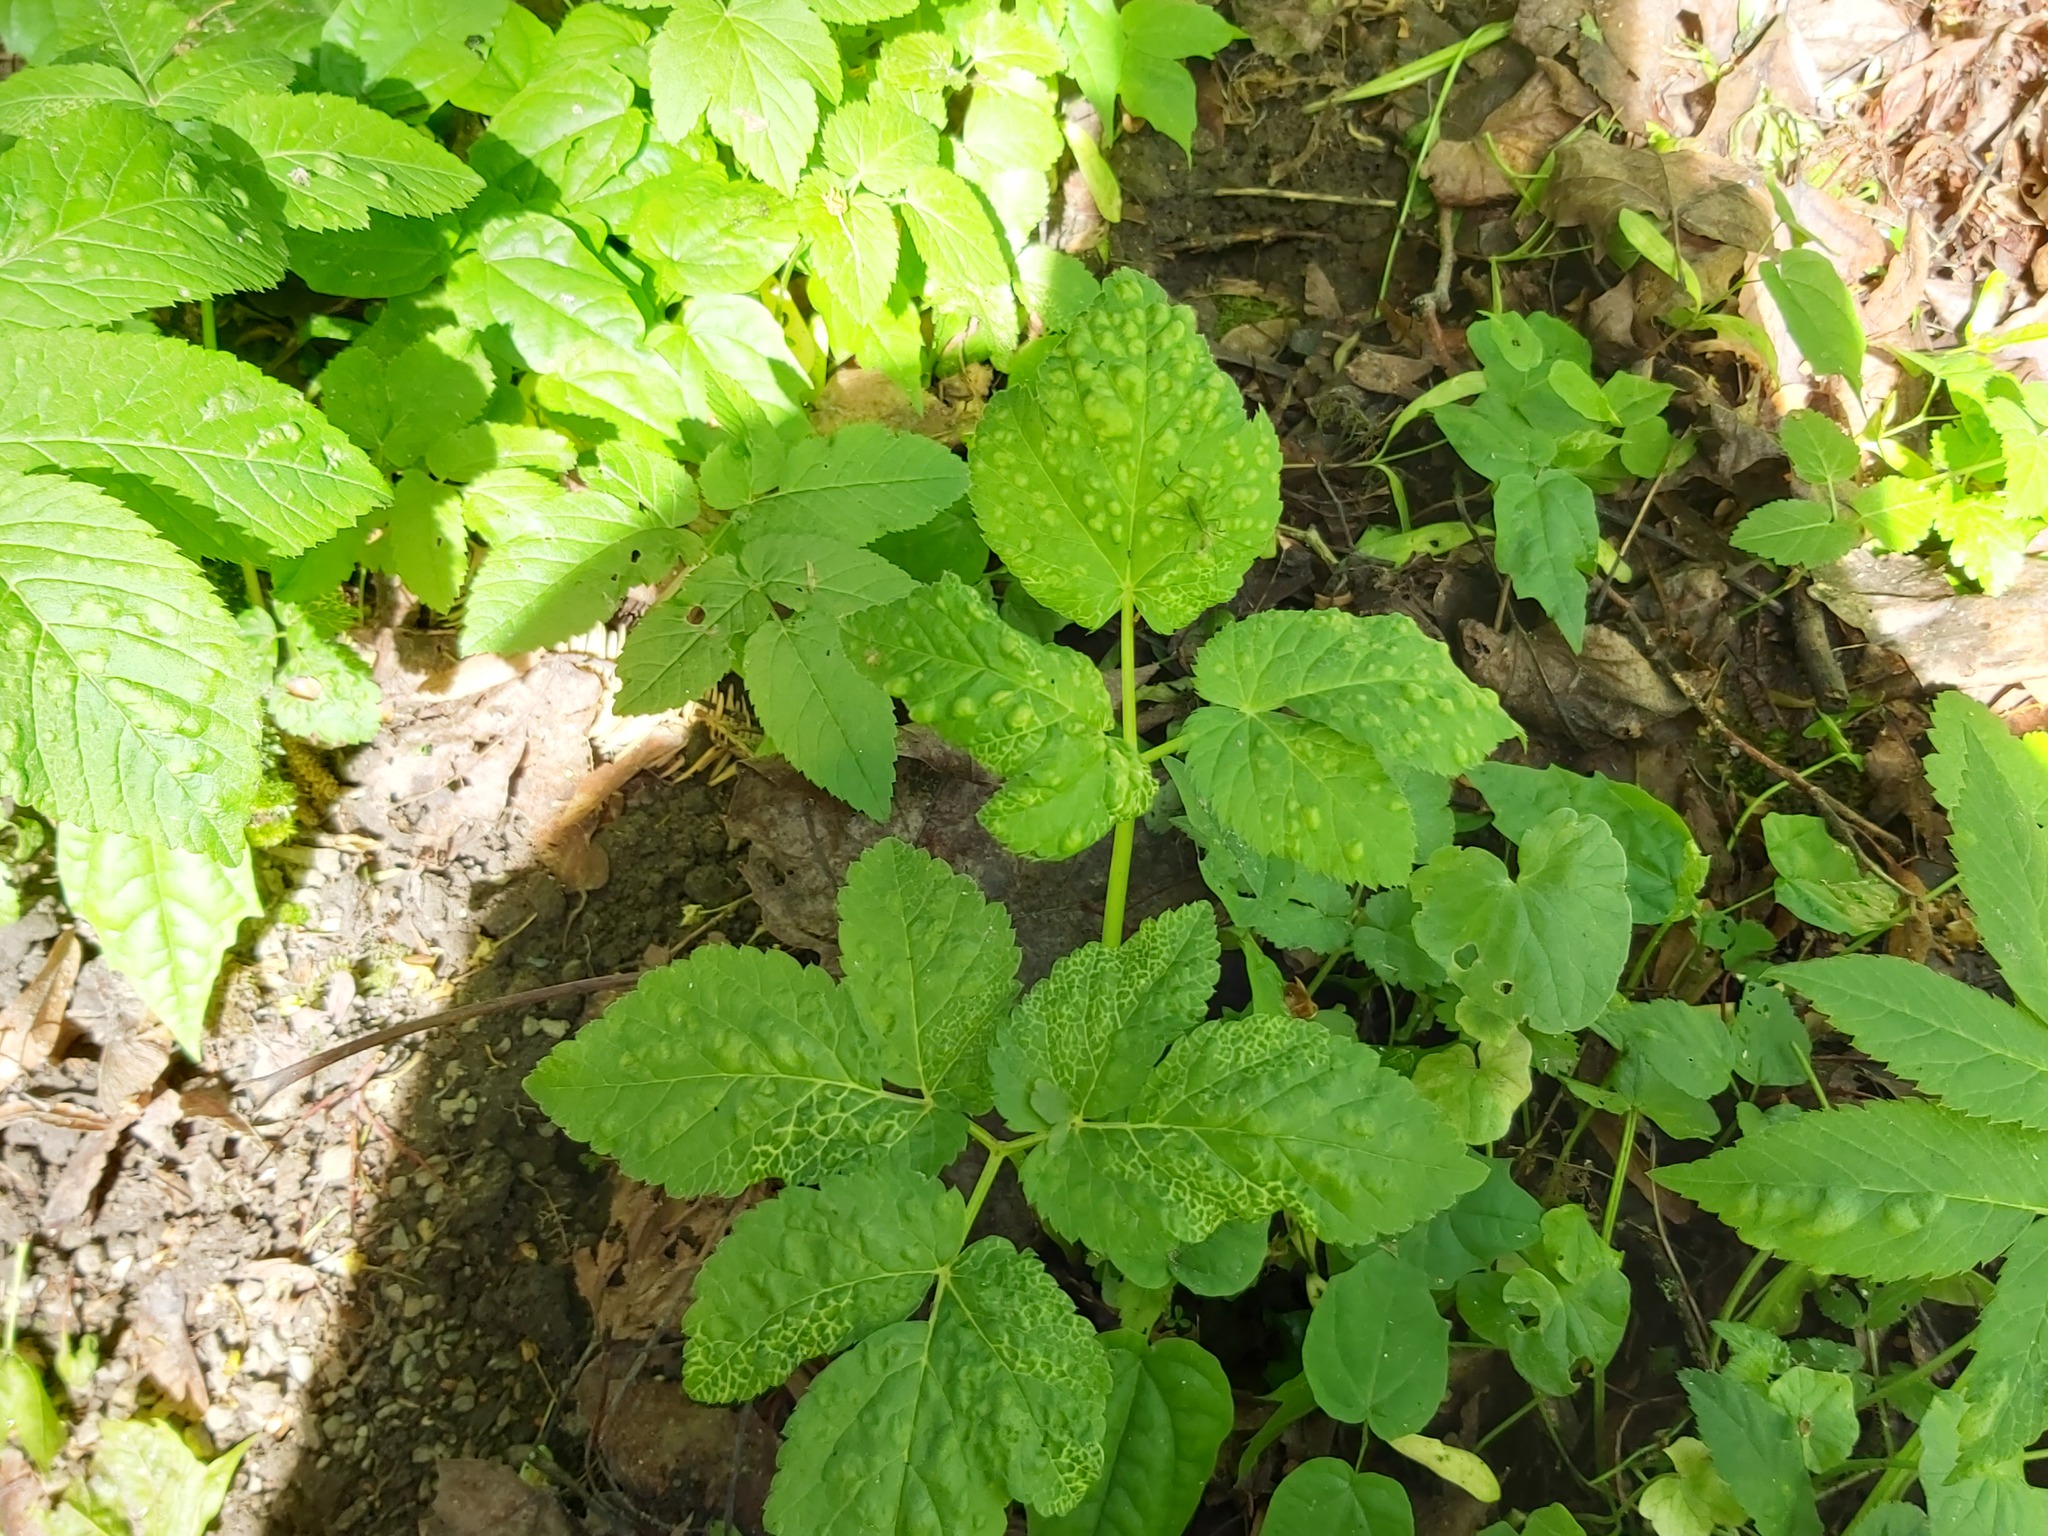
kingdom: Animalia
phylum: Arthropoda
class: Insecta
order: Hemiptera
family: Triozidae
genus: Trioza
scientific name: Trioza flavipennis
